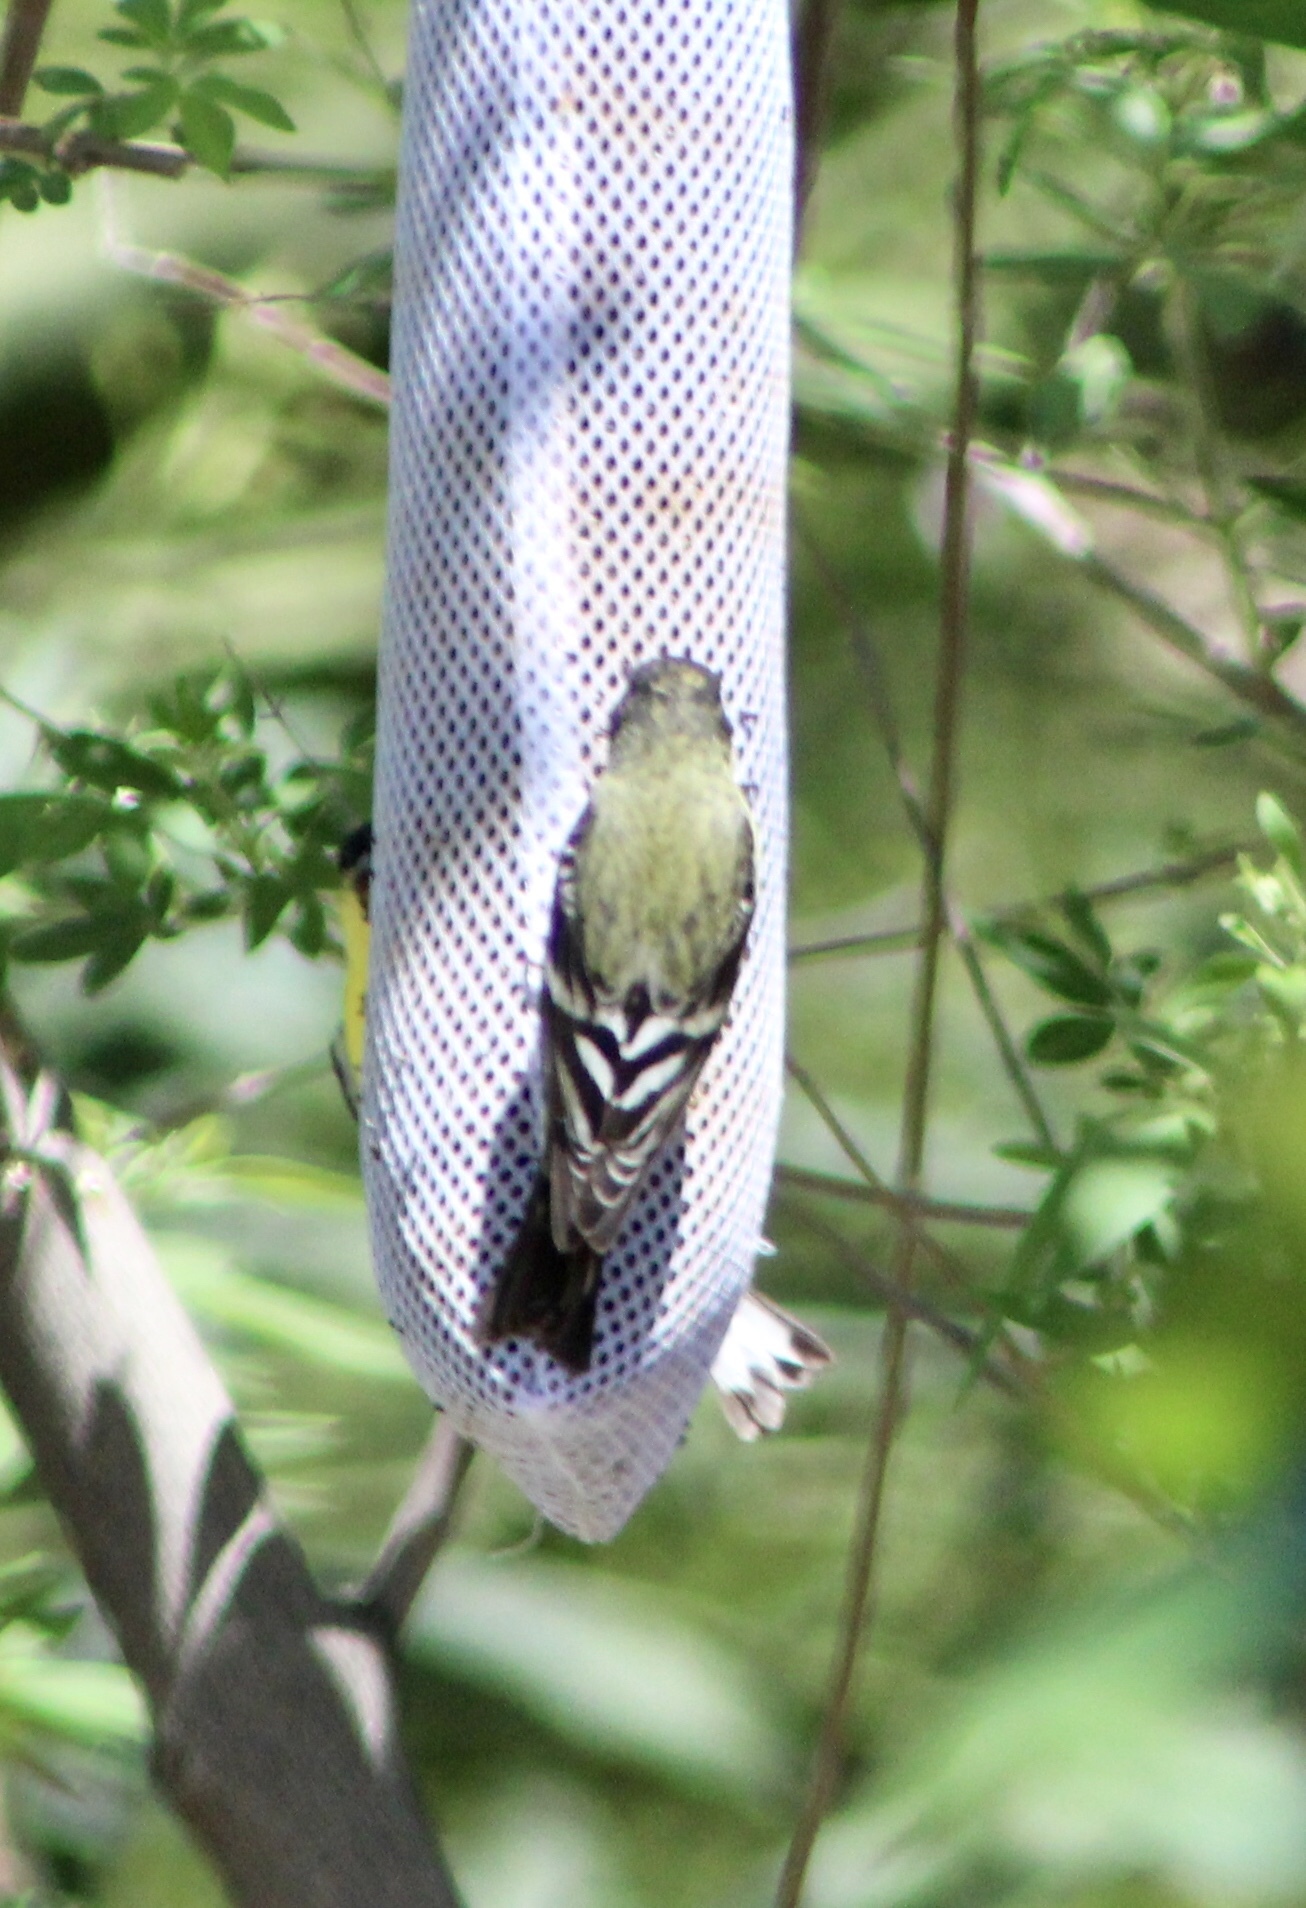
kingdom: Animalia
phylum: Chordata
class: Aves
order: Passeriformes
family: Fringillidae
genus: Spinus
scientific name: Spinus psaltria
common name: Lesser goldfinch
